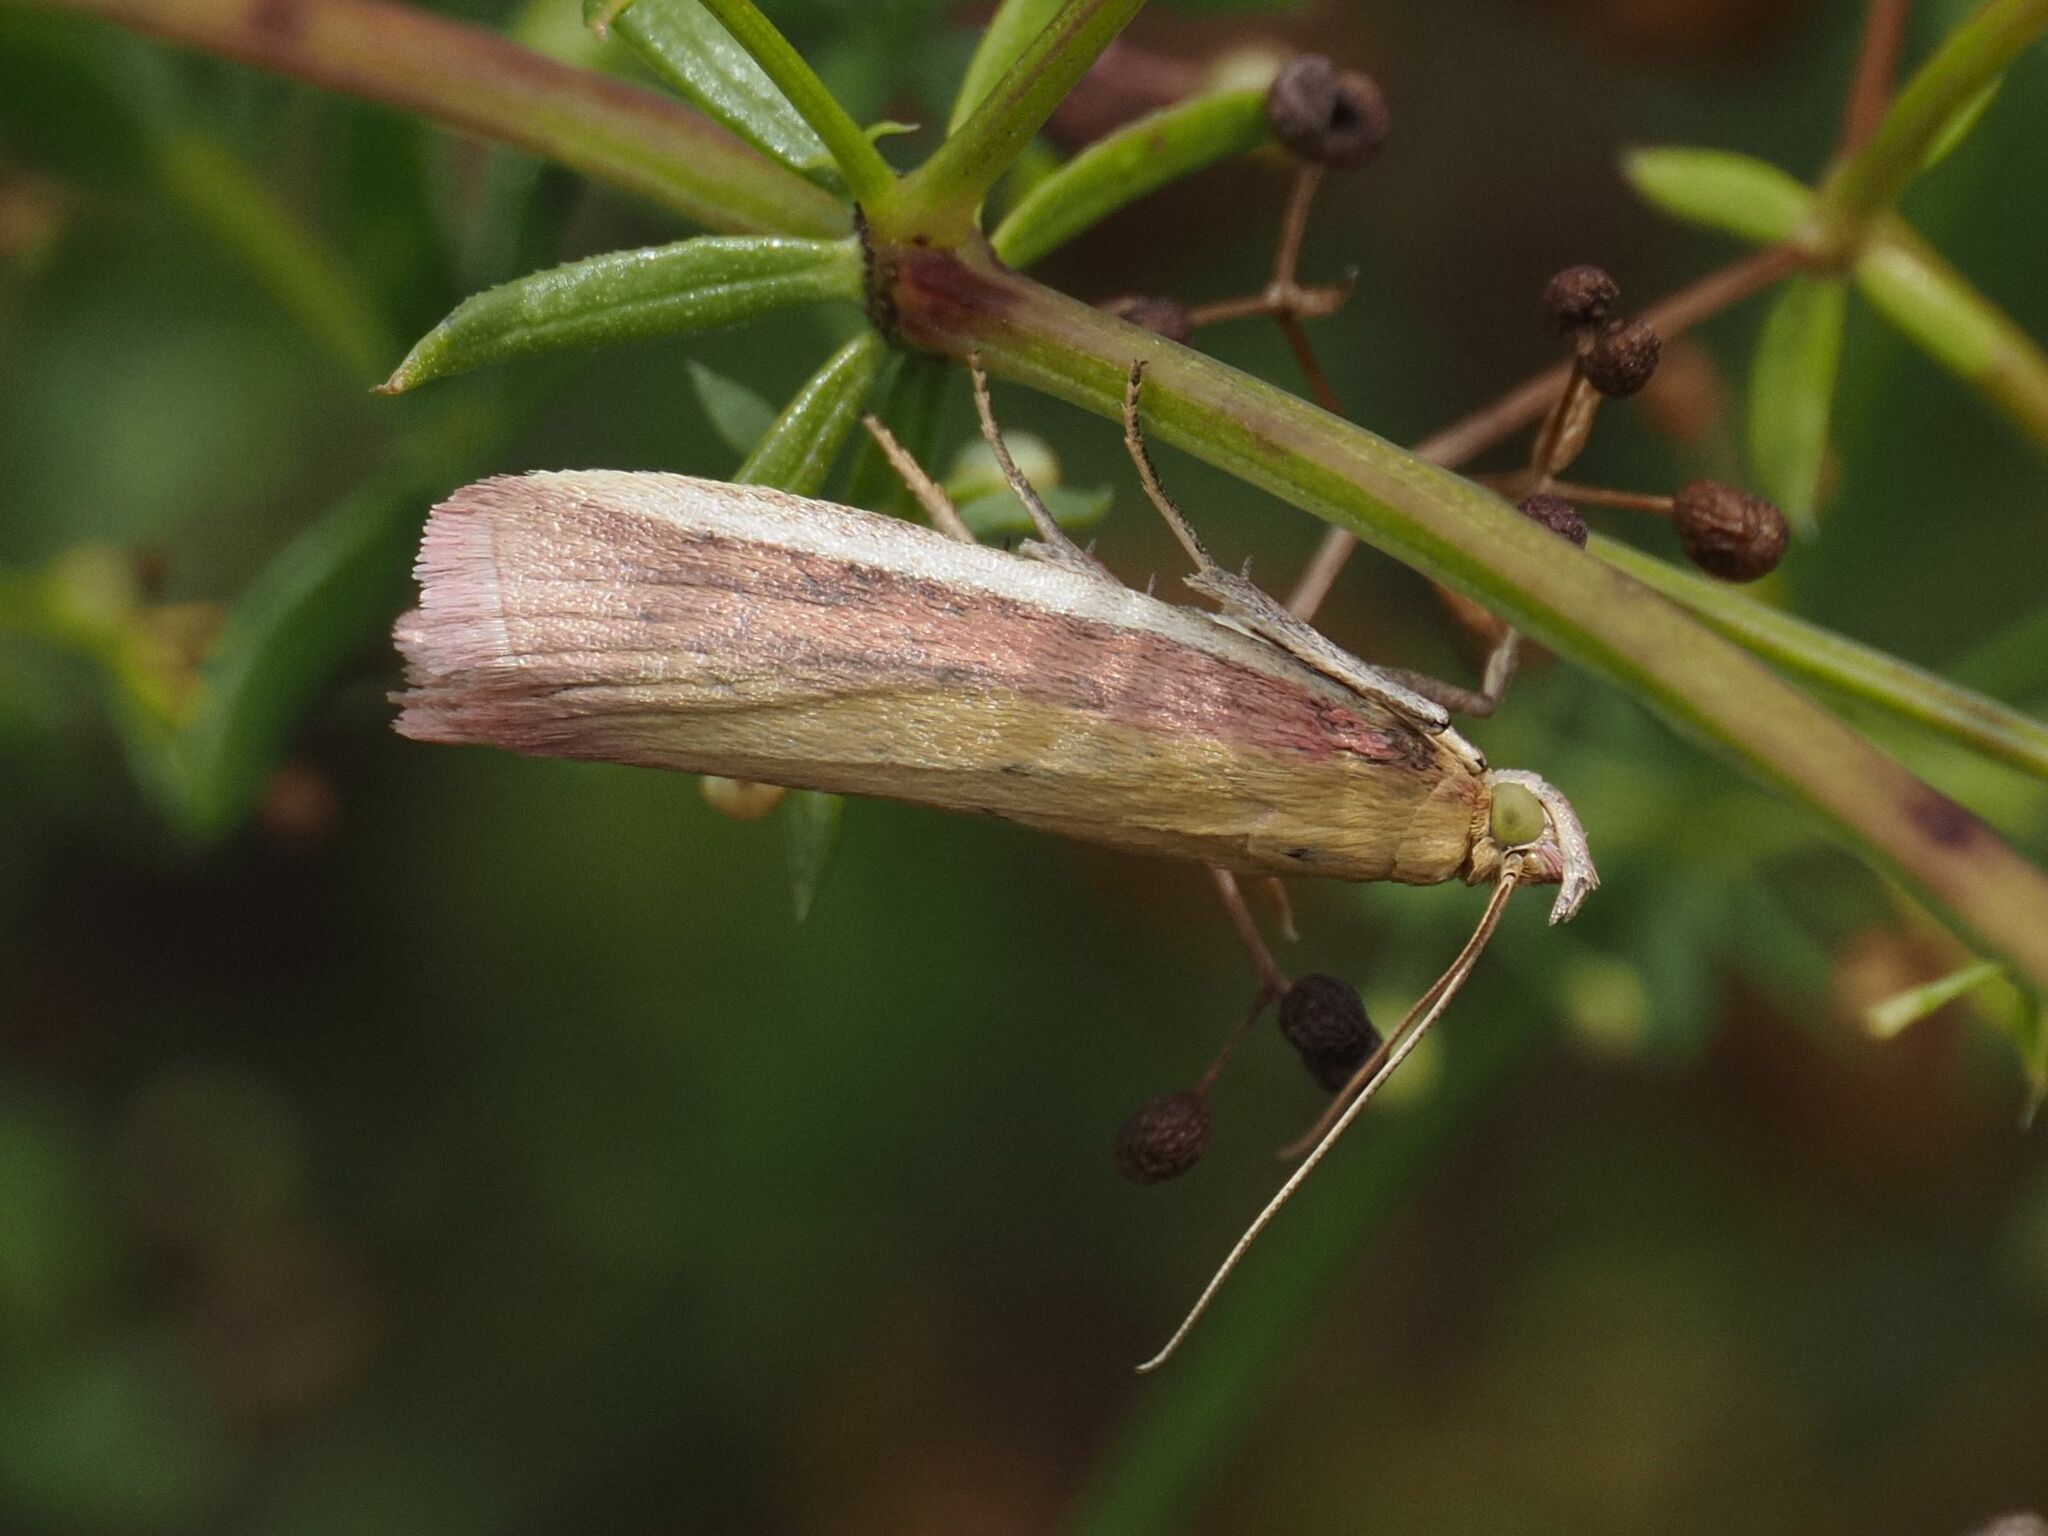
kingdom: Animalia
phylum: Arthropoda
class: Insecta
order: Lepidoptera
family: Pyralidae
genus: Oncocera
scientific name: Oncocera semirubella
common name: Rosy-striped knot-horn
